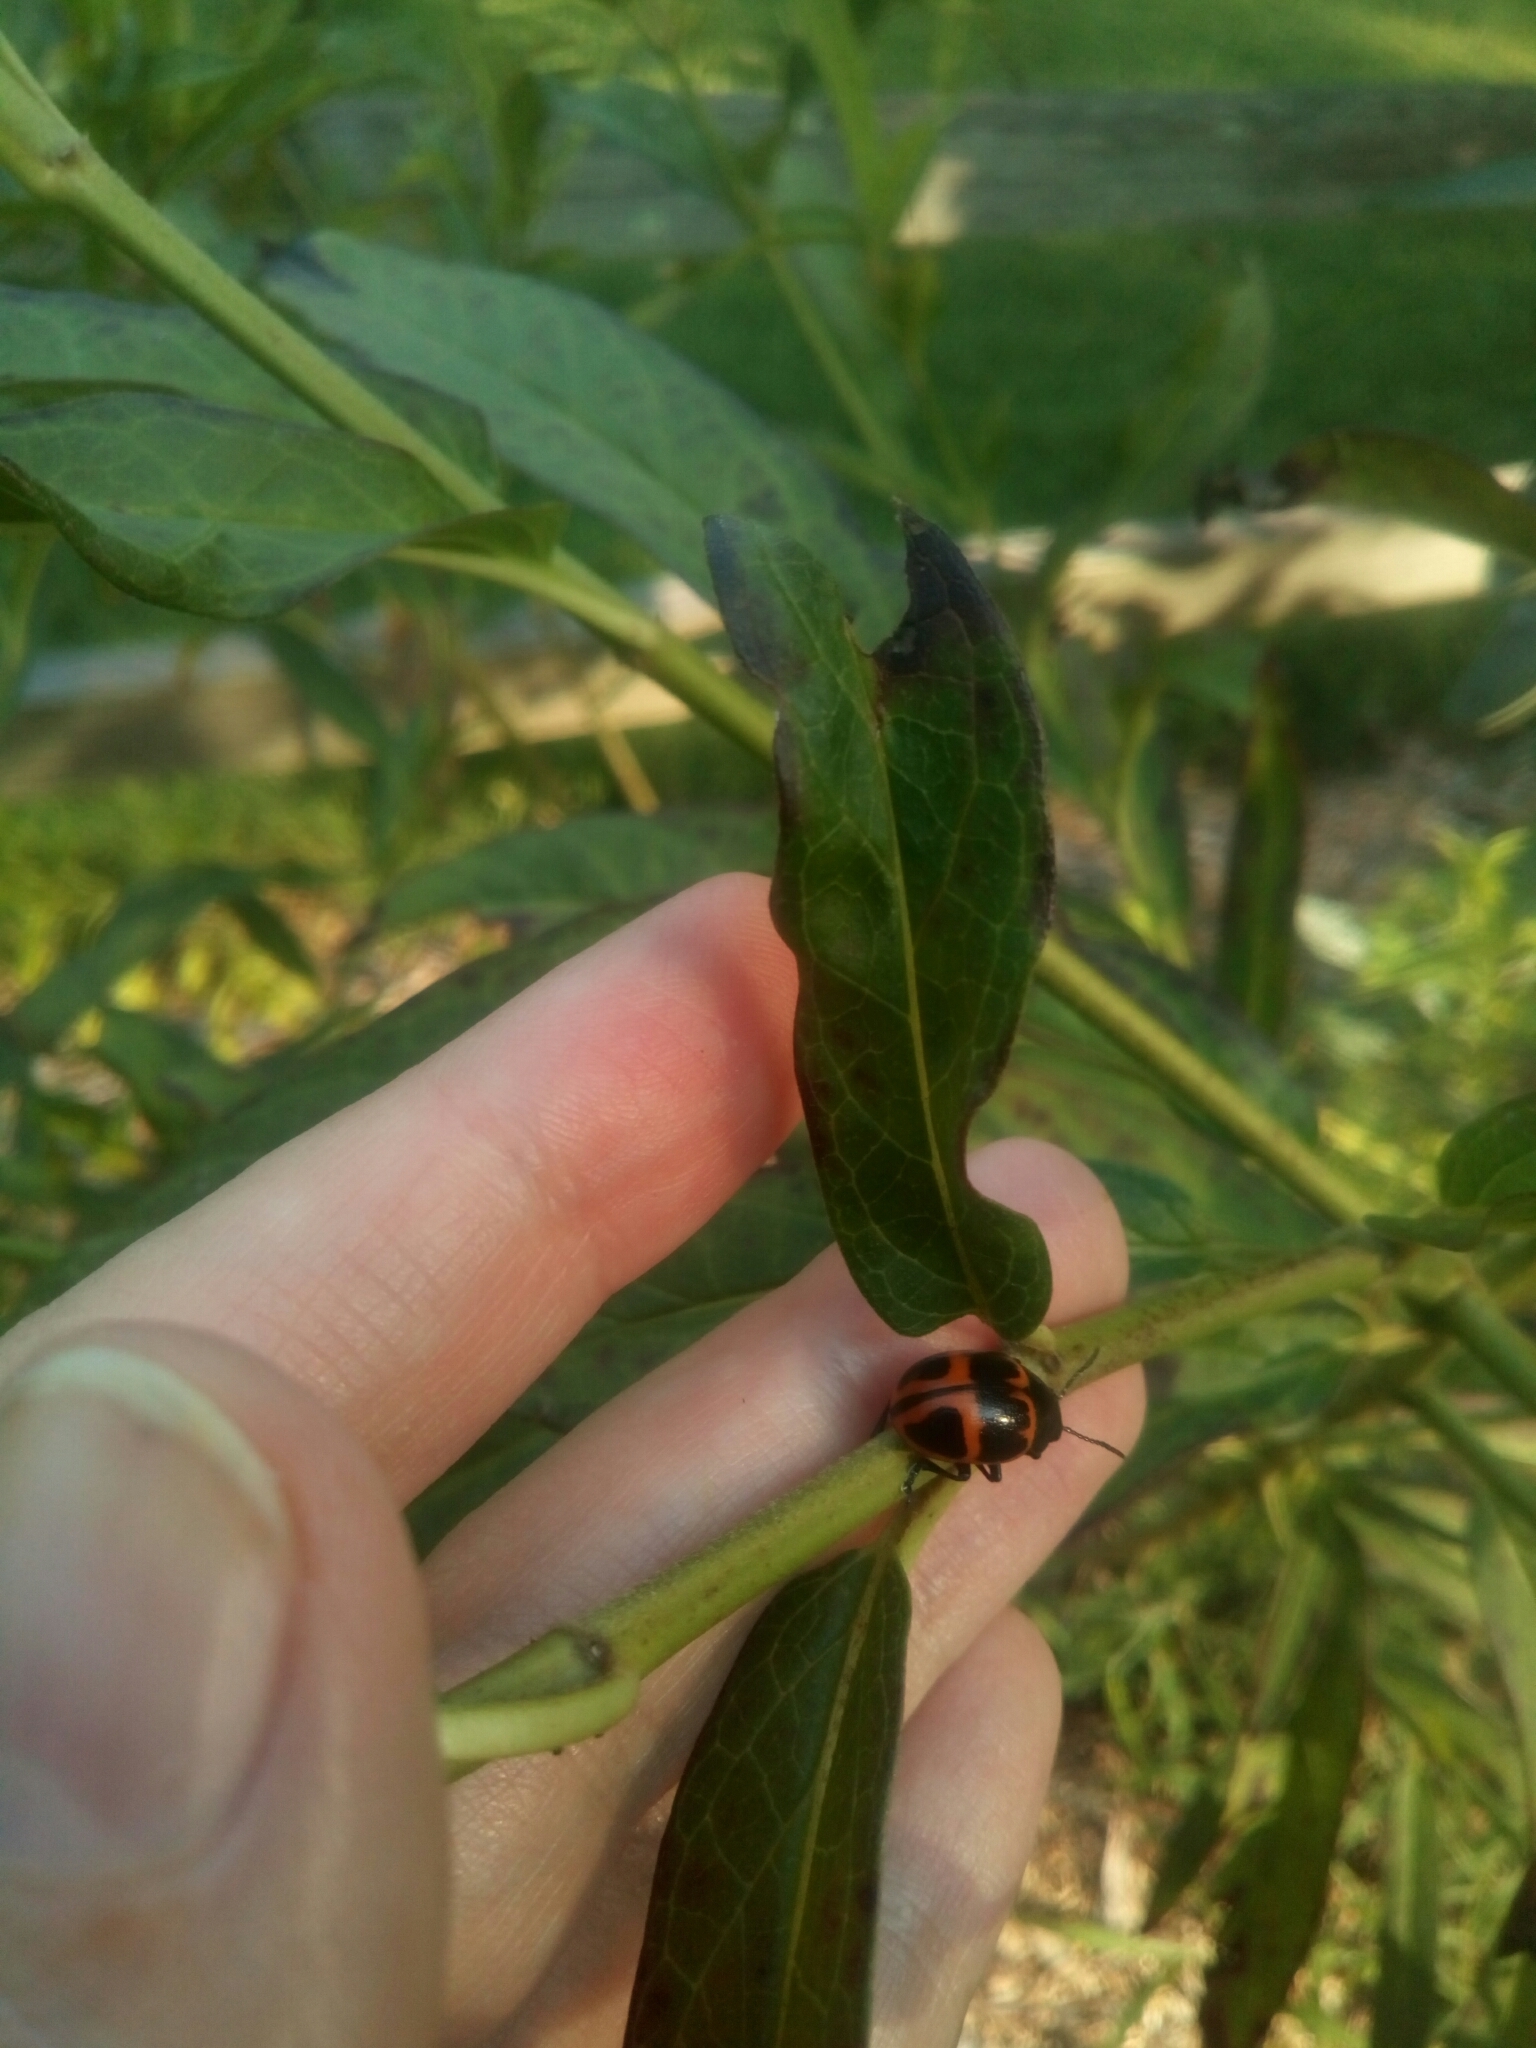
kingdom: Animalia
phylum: Arthropoda
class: Insecta
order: Coleoptera
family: Chrysomelidae
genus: Labidomera
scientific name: Labidomera clivicollis
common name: Swamp milkweed leaf beetle
